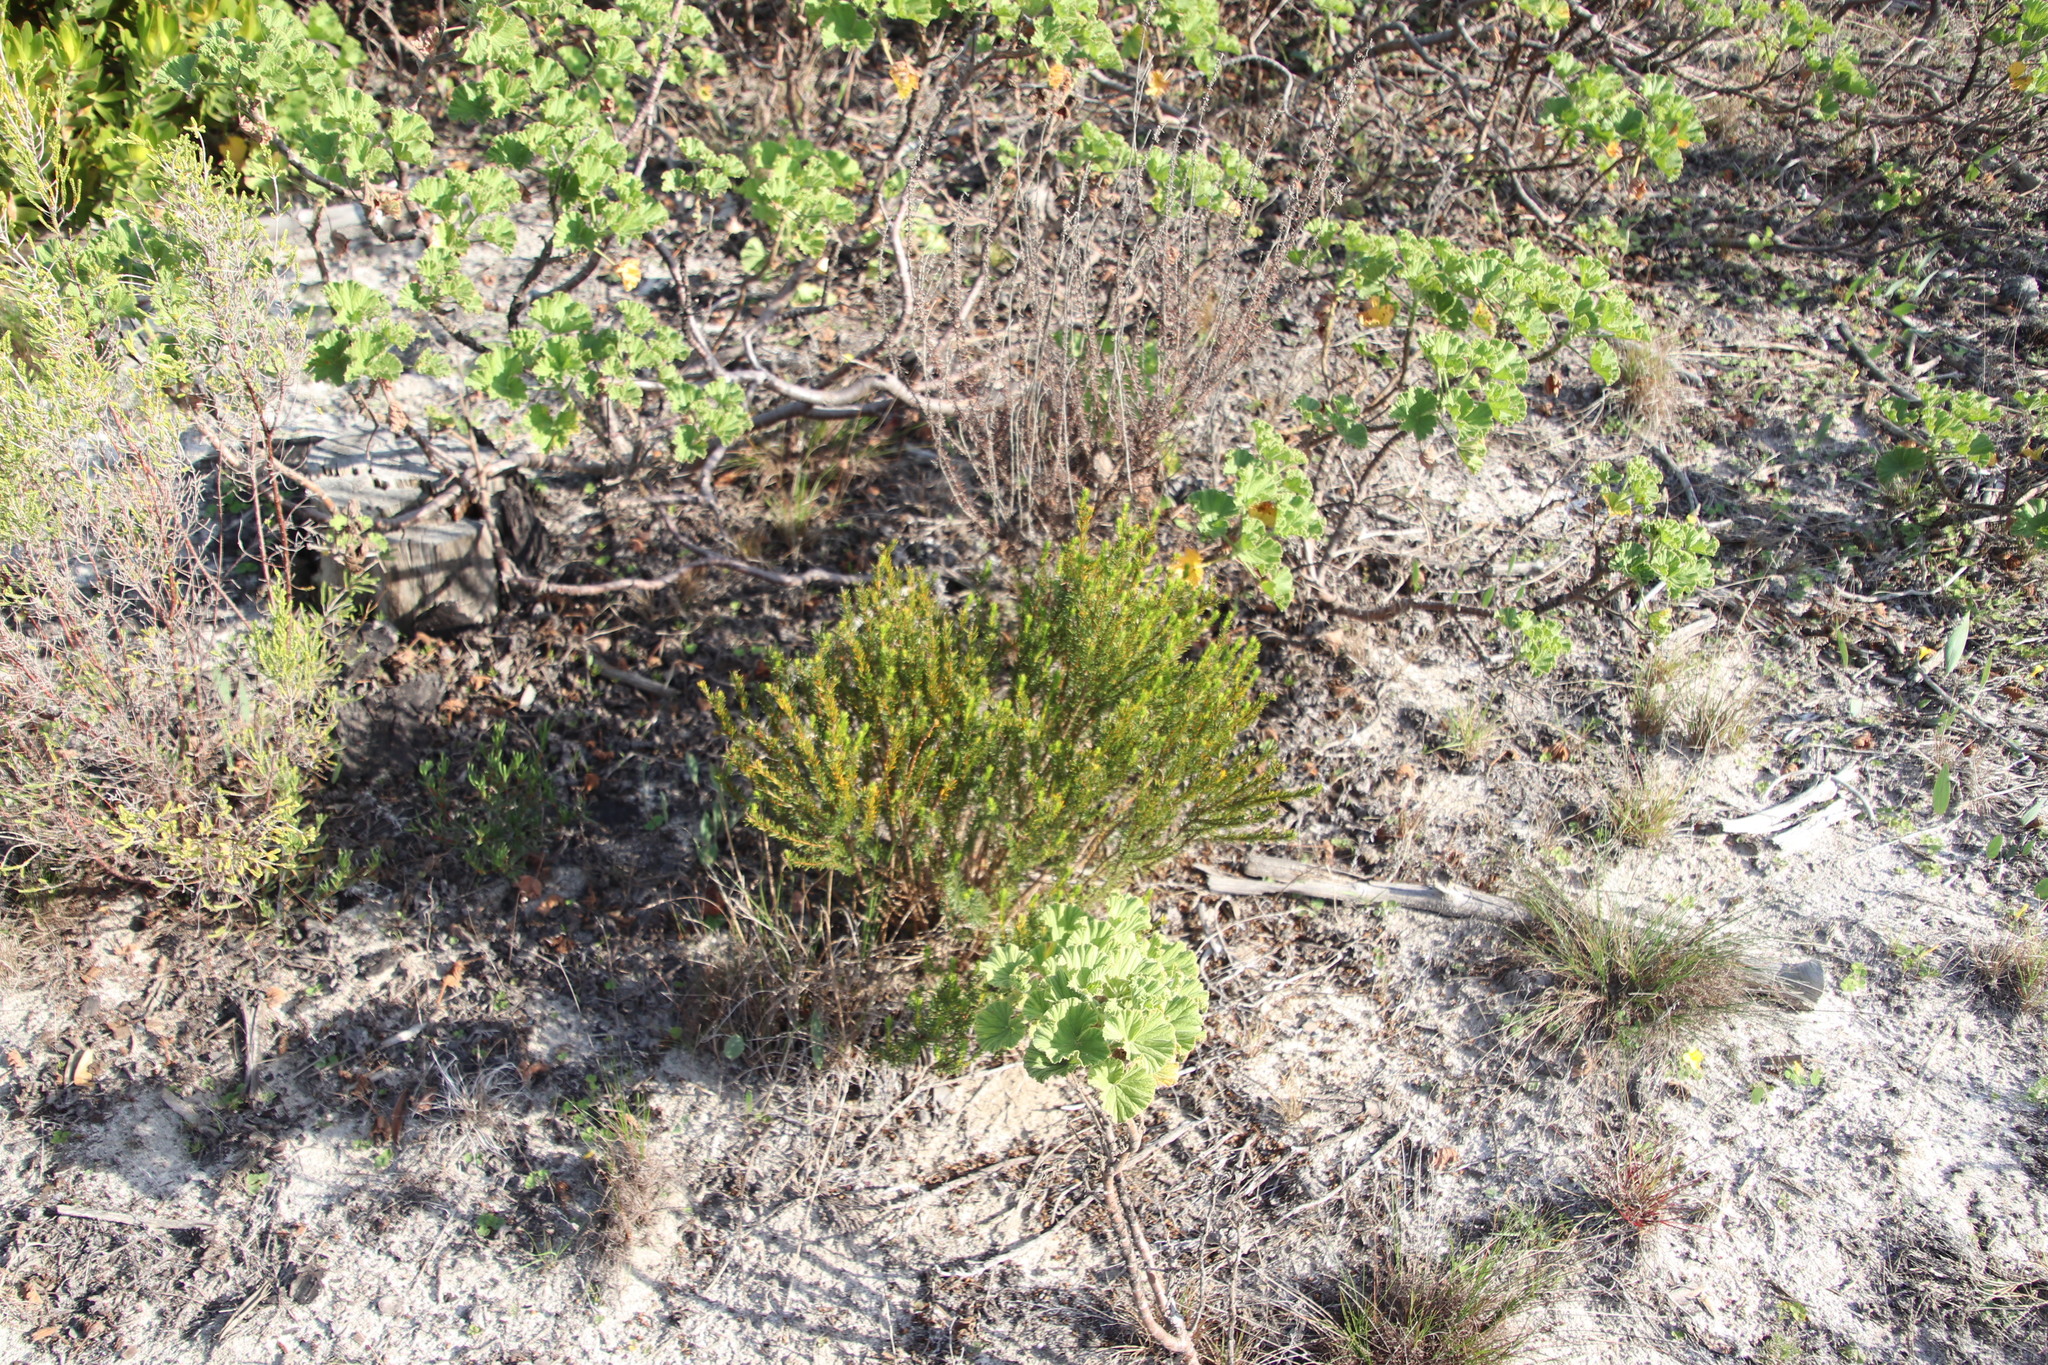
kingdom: Plantae
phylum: Tracheophyta
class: Magnoliopsida
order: Fabales
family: Fabaceae
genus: Aspalathus
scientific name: Aspalathus callosa
